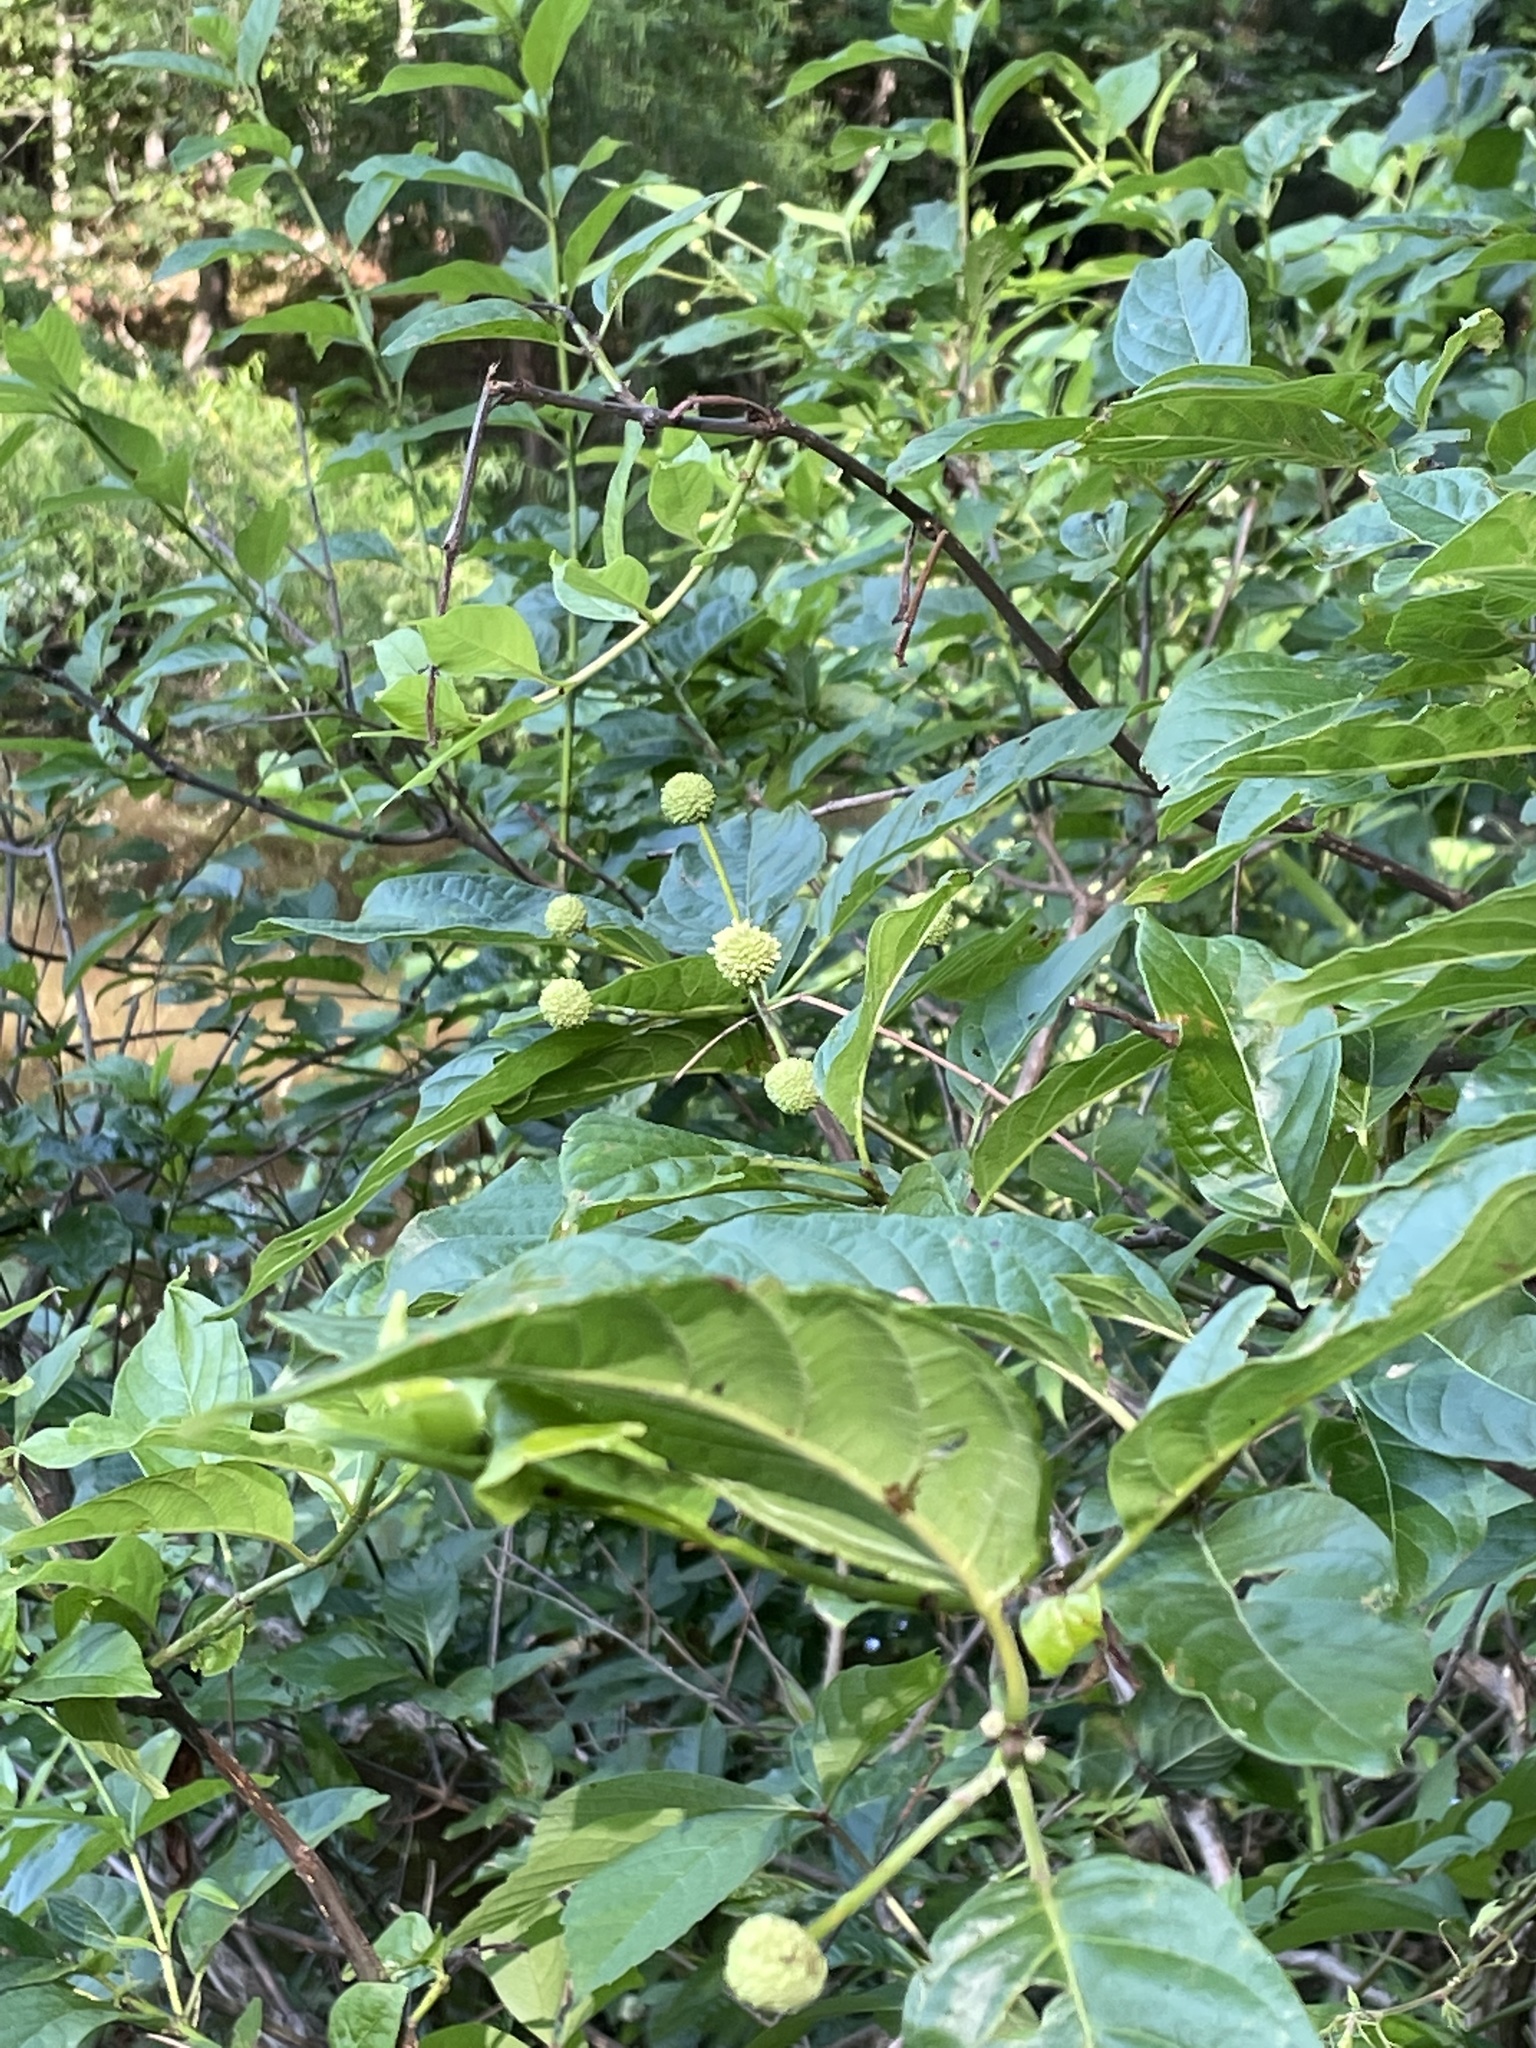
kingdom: Plantae
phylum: Tracheophyta
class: Magnoliopsida
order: Gentianales
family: Rubiaceae
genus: Cephalanthus
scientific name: Cephalanthus occidentalis
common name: Button-willow
